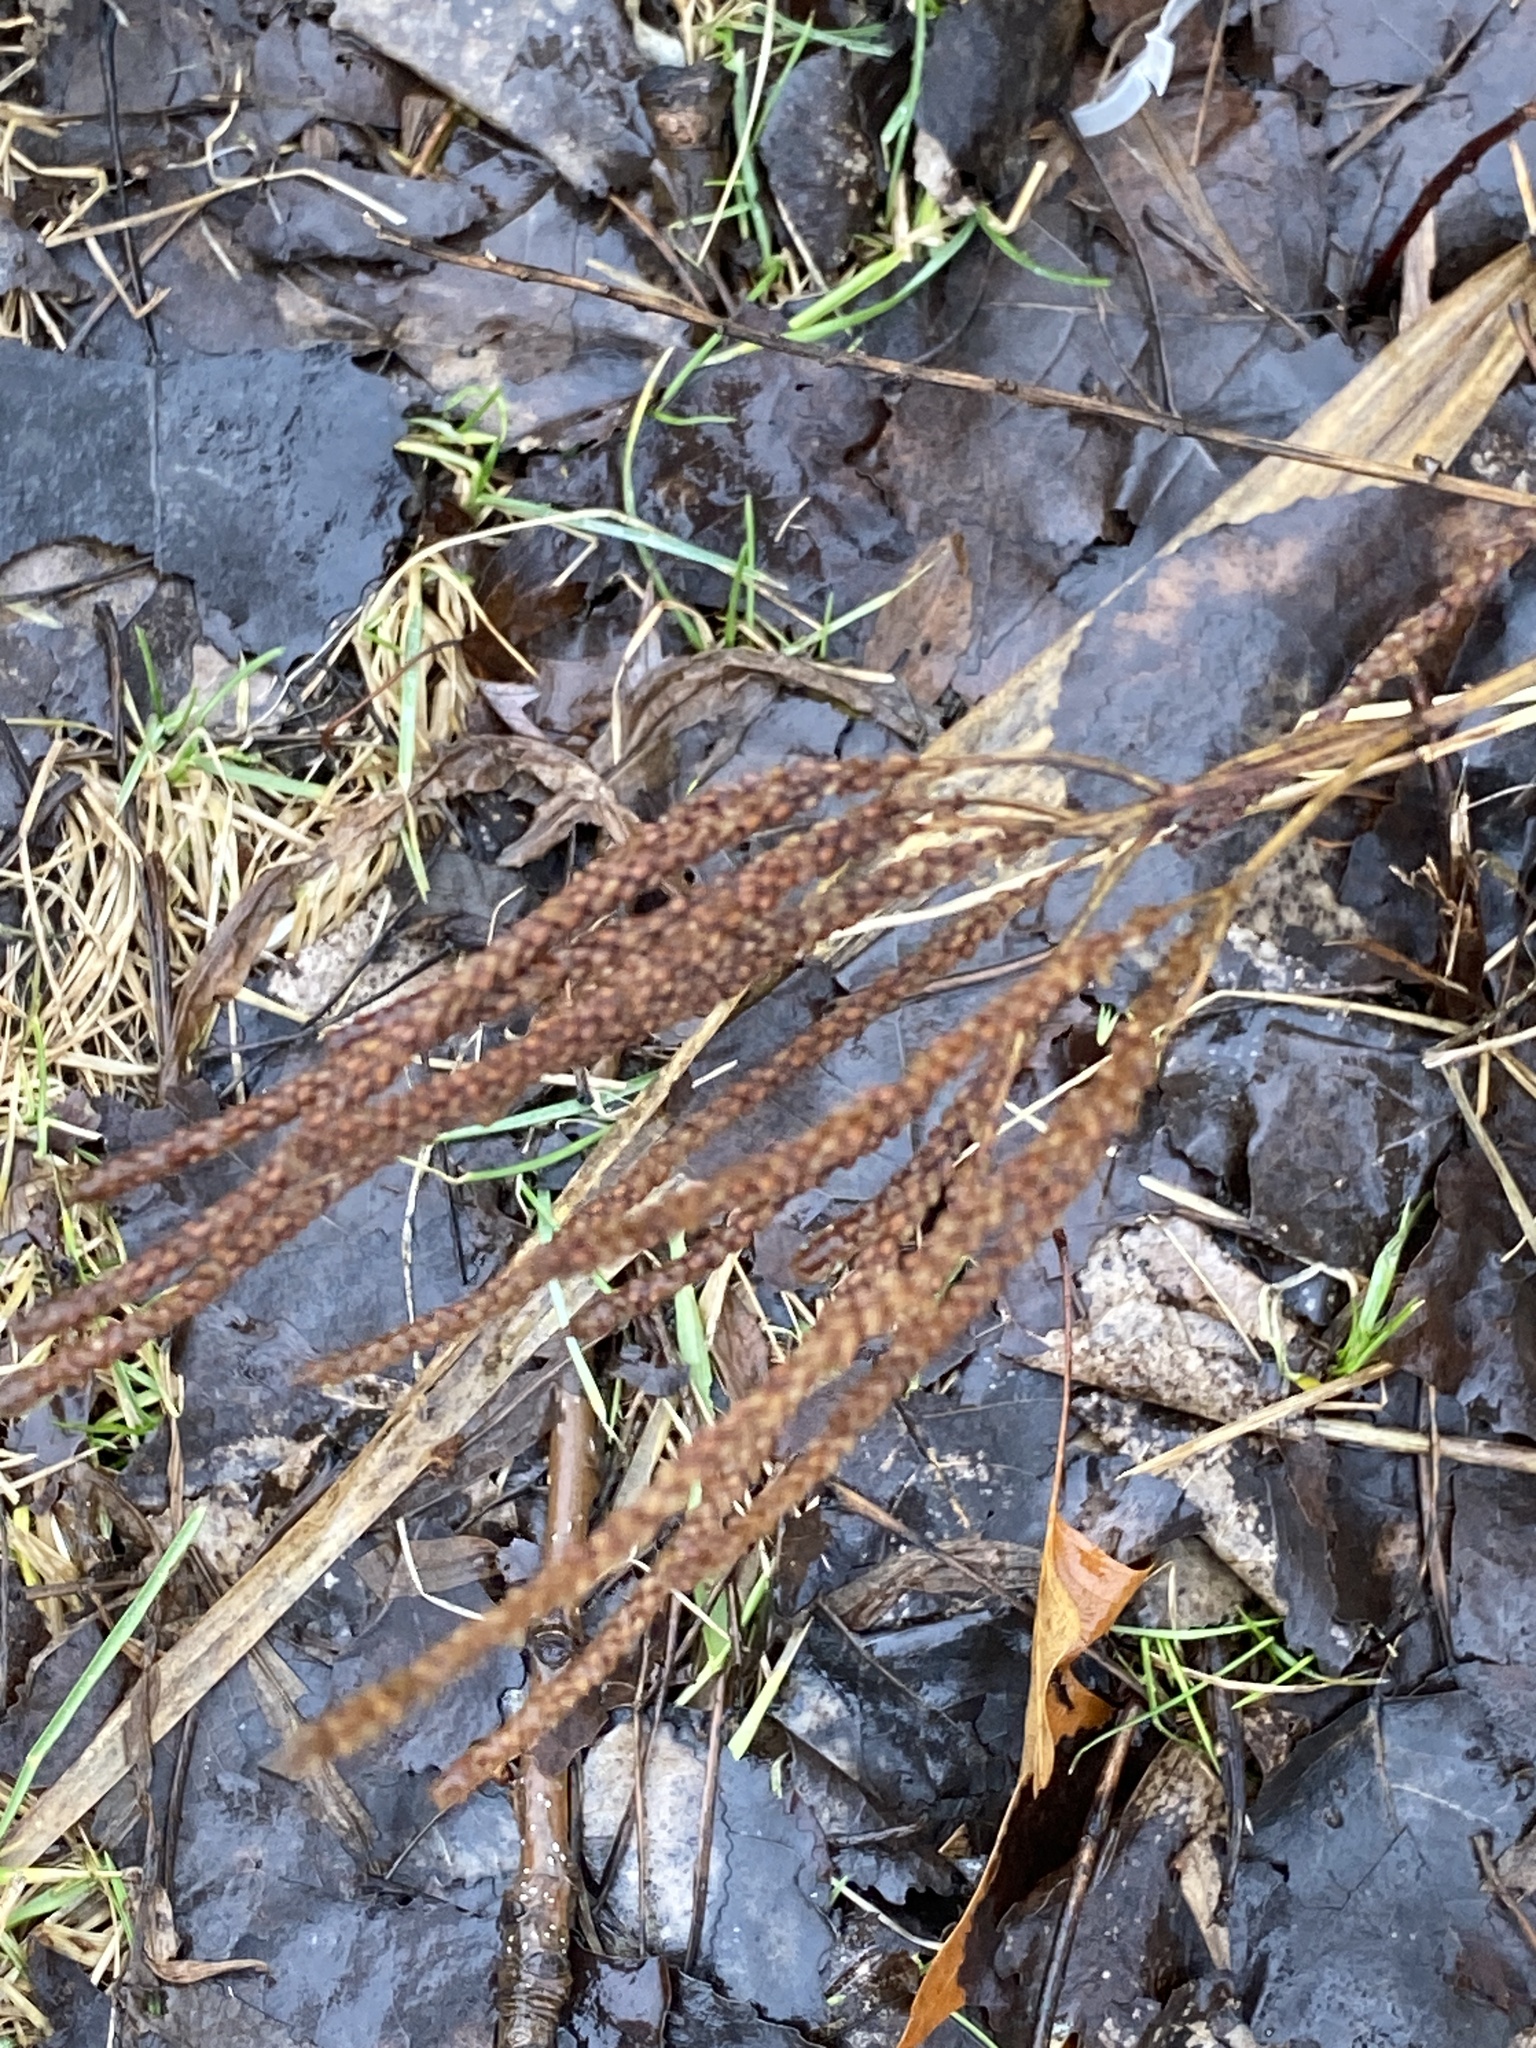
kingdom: Plantae
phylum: Tracheophyta
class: Magnoliopsida
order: Lamiales
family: Verbenaceae
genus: Verbena
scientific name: Verbena hastata
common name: American blue vervain
